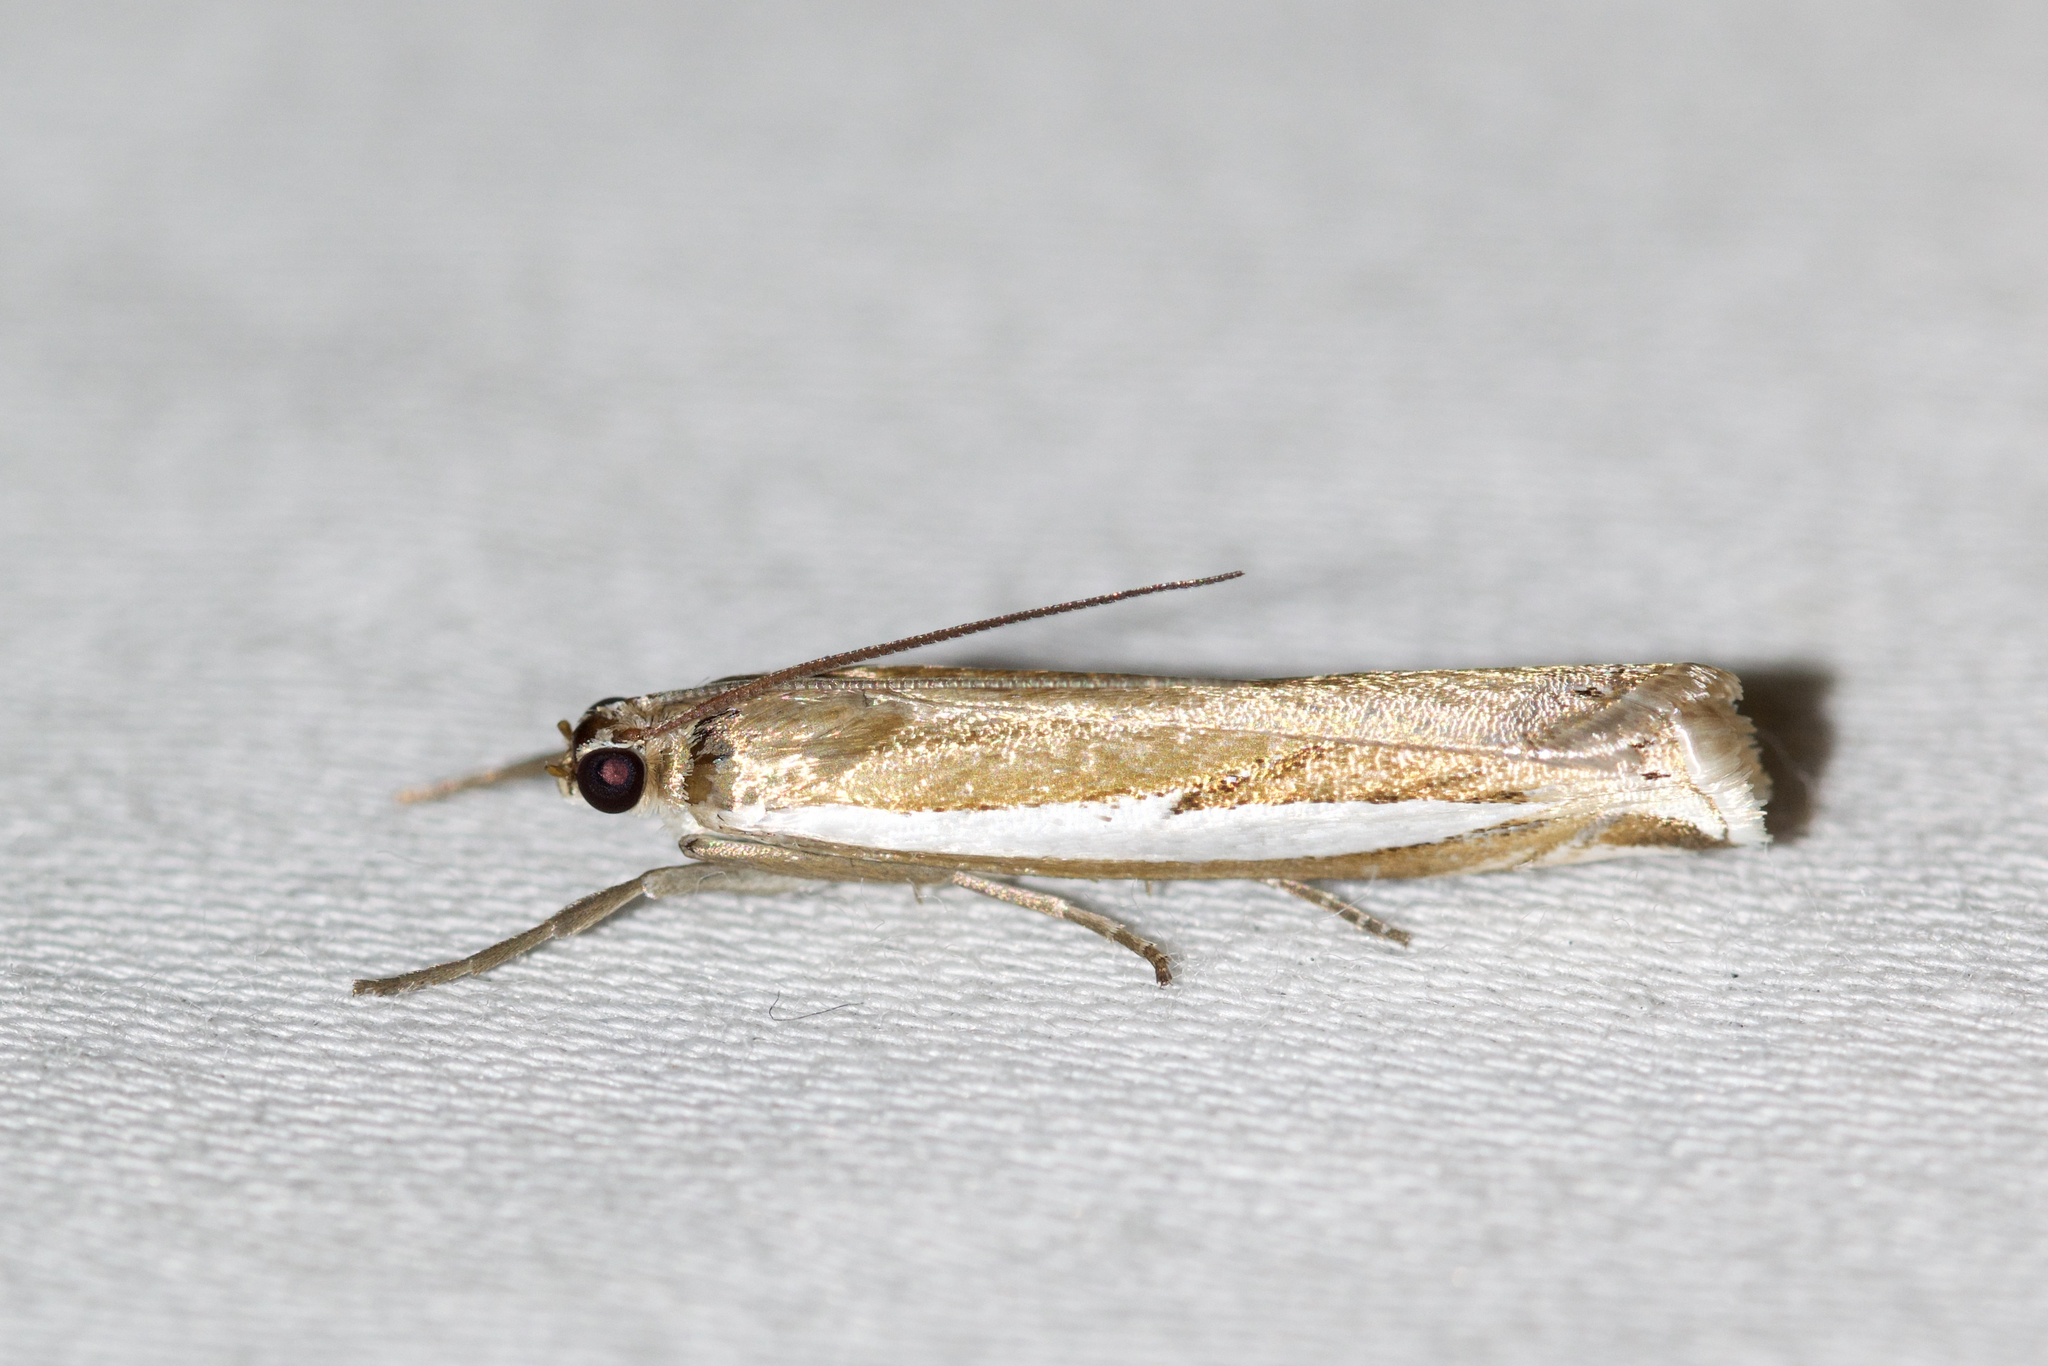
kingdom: Animalia
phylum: Arthropoda
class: Insecta
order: Lepidoptera
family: Crambidae
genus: Crambus
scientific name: Crambus praefectellus
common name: Common grass-veneer
